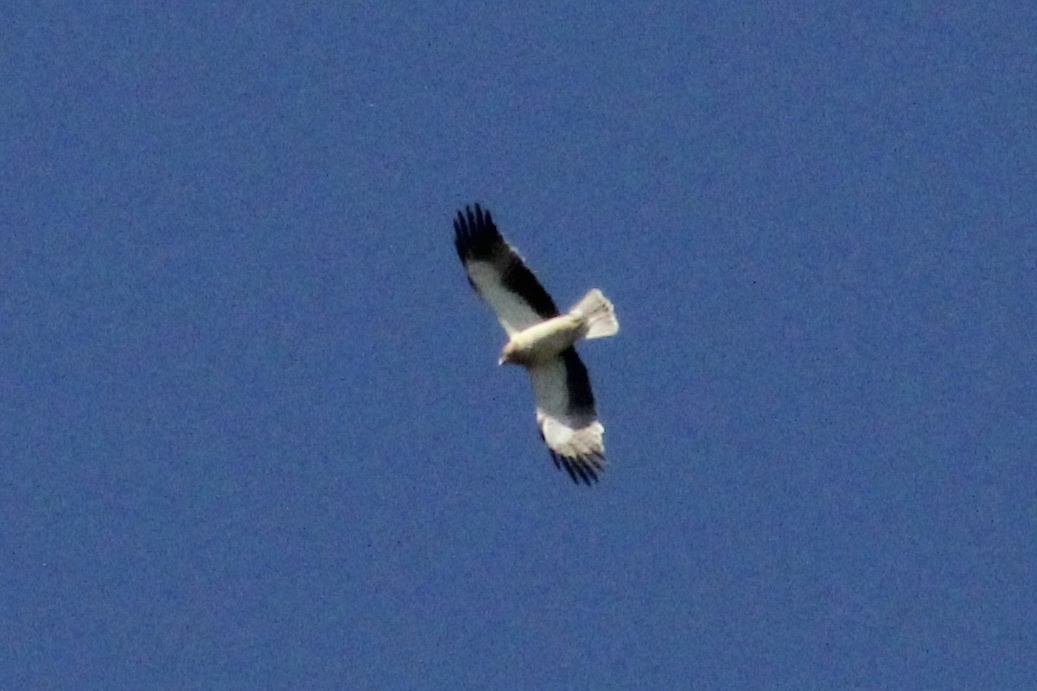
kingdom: Animalia
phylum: Chordata
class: Aves
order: Accipitriformes
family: Accipitridae
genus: Hieraaetus
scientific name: Hieraaetus pennatus
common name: Booted eagle
